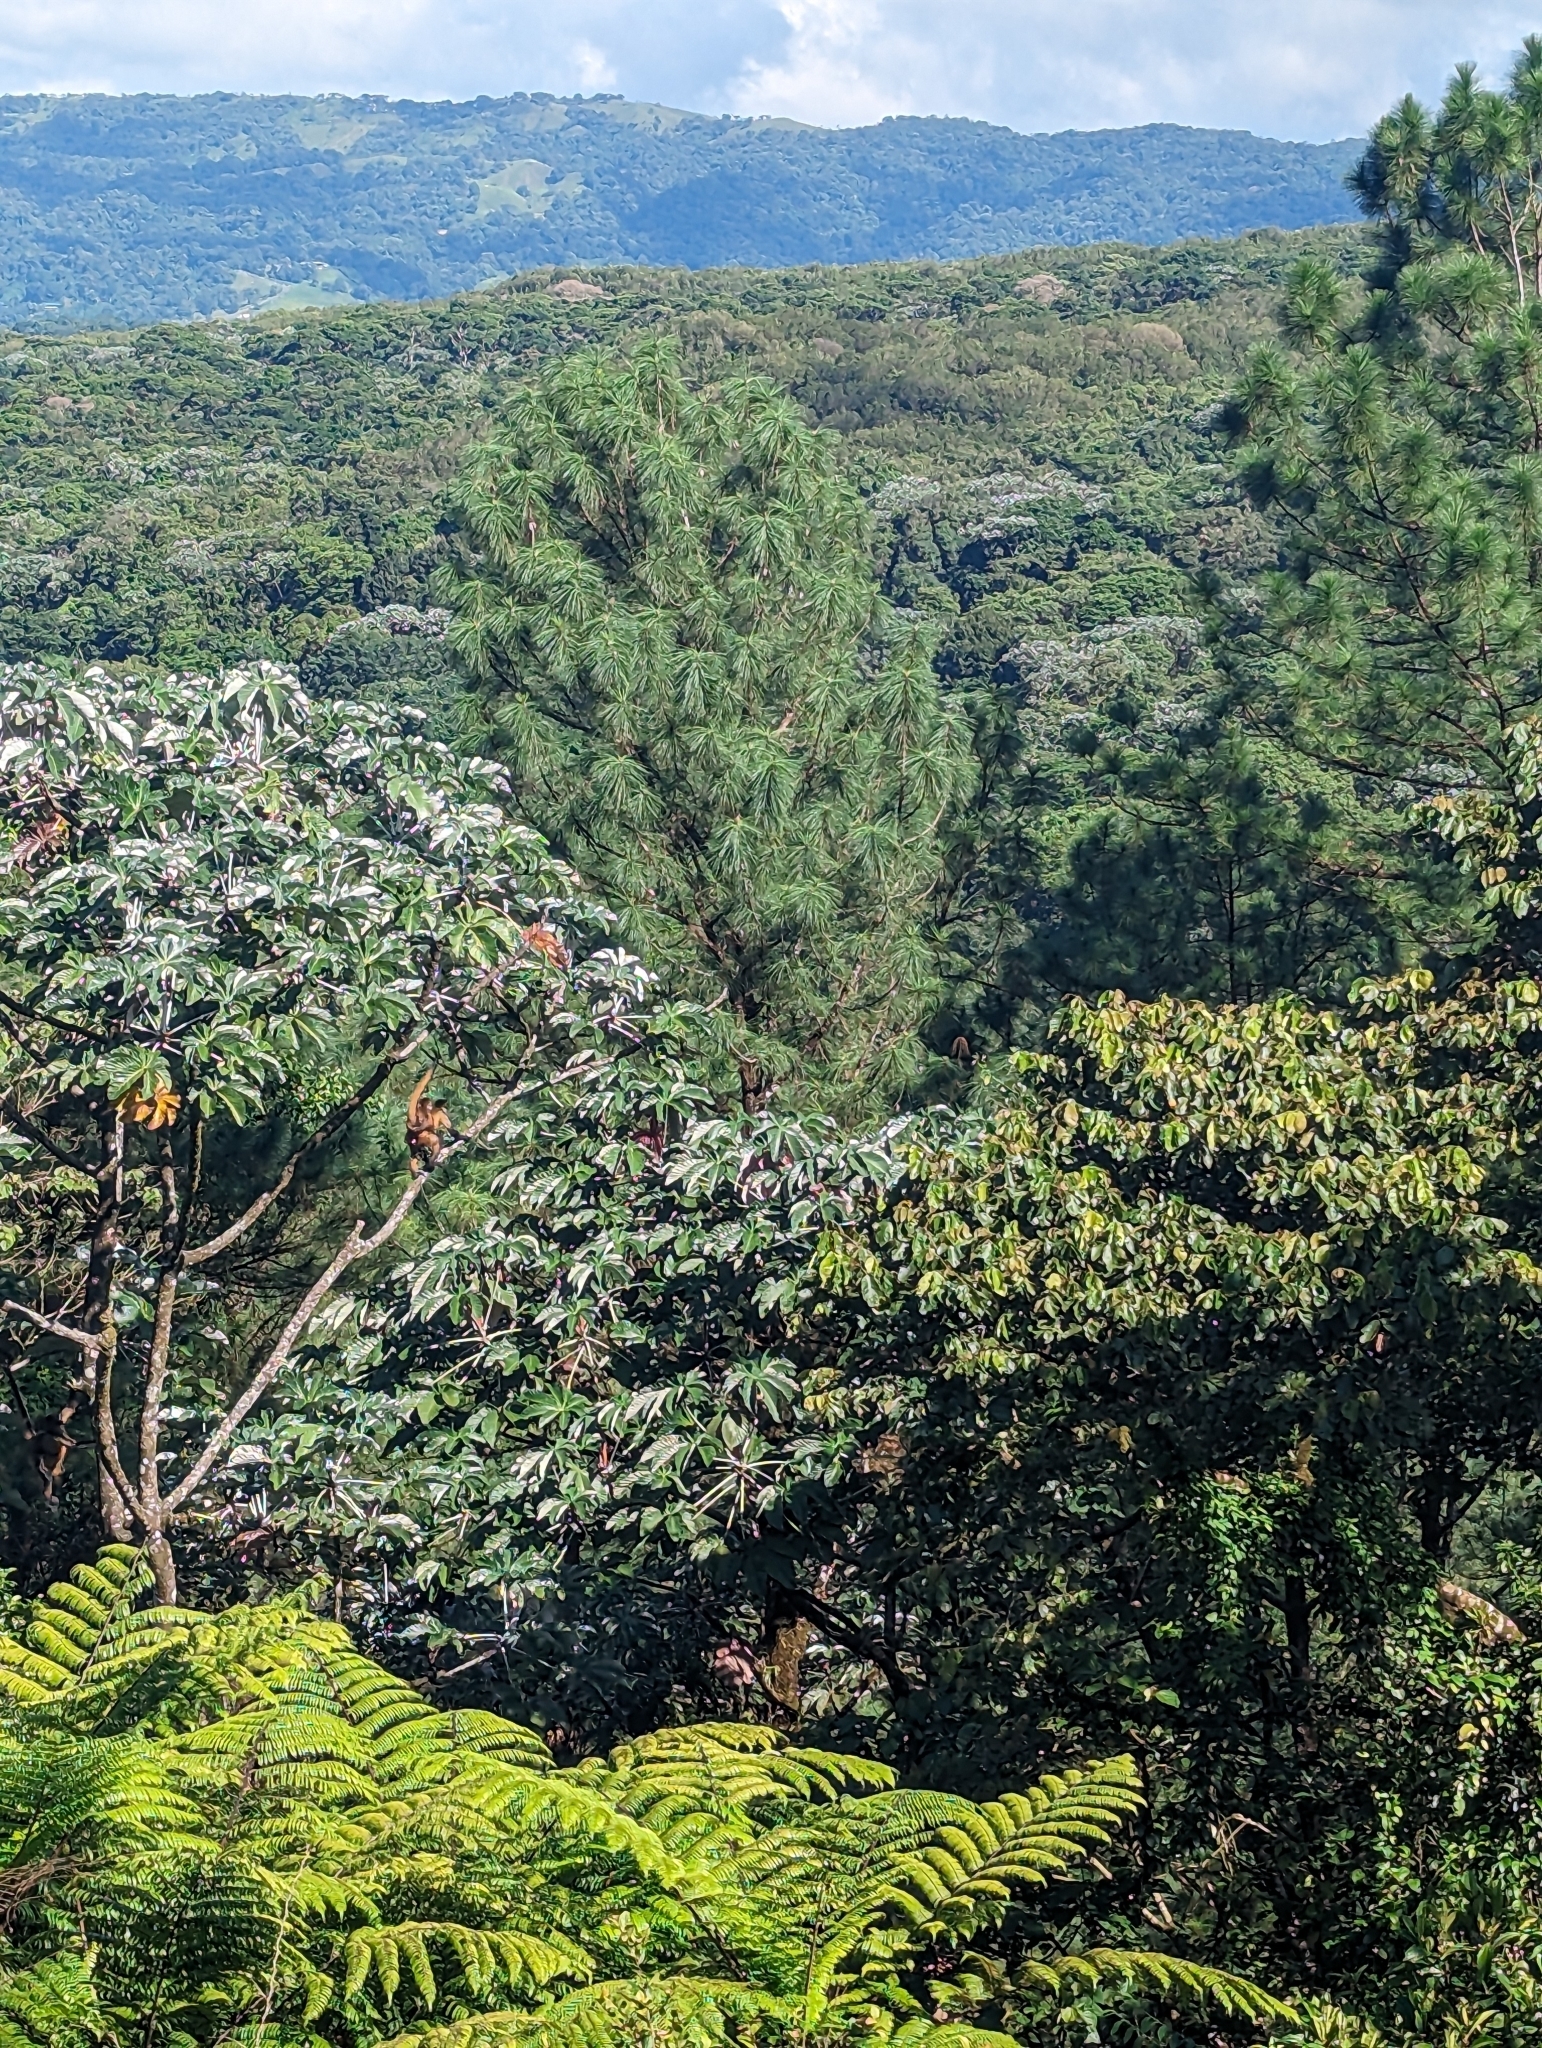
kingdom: Animalia
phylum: Chordata
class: Mammalia
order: Primates
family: Atelidae
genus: Ateles
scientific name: Ateles geoffroyi
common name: Black-handed spider monkey
